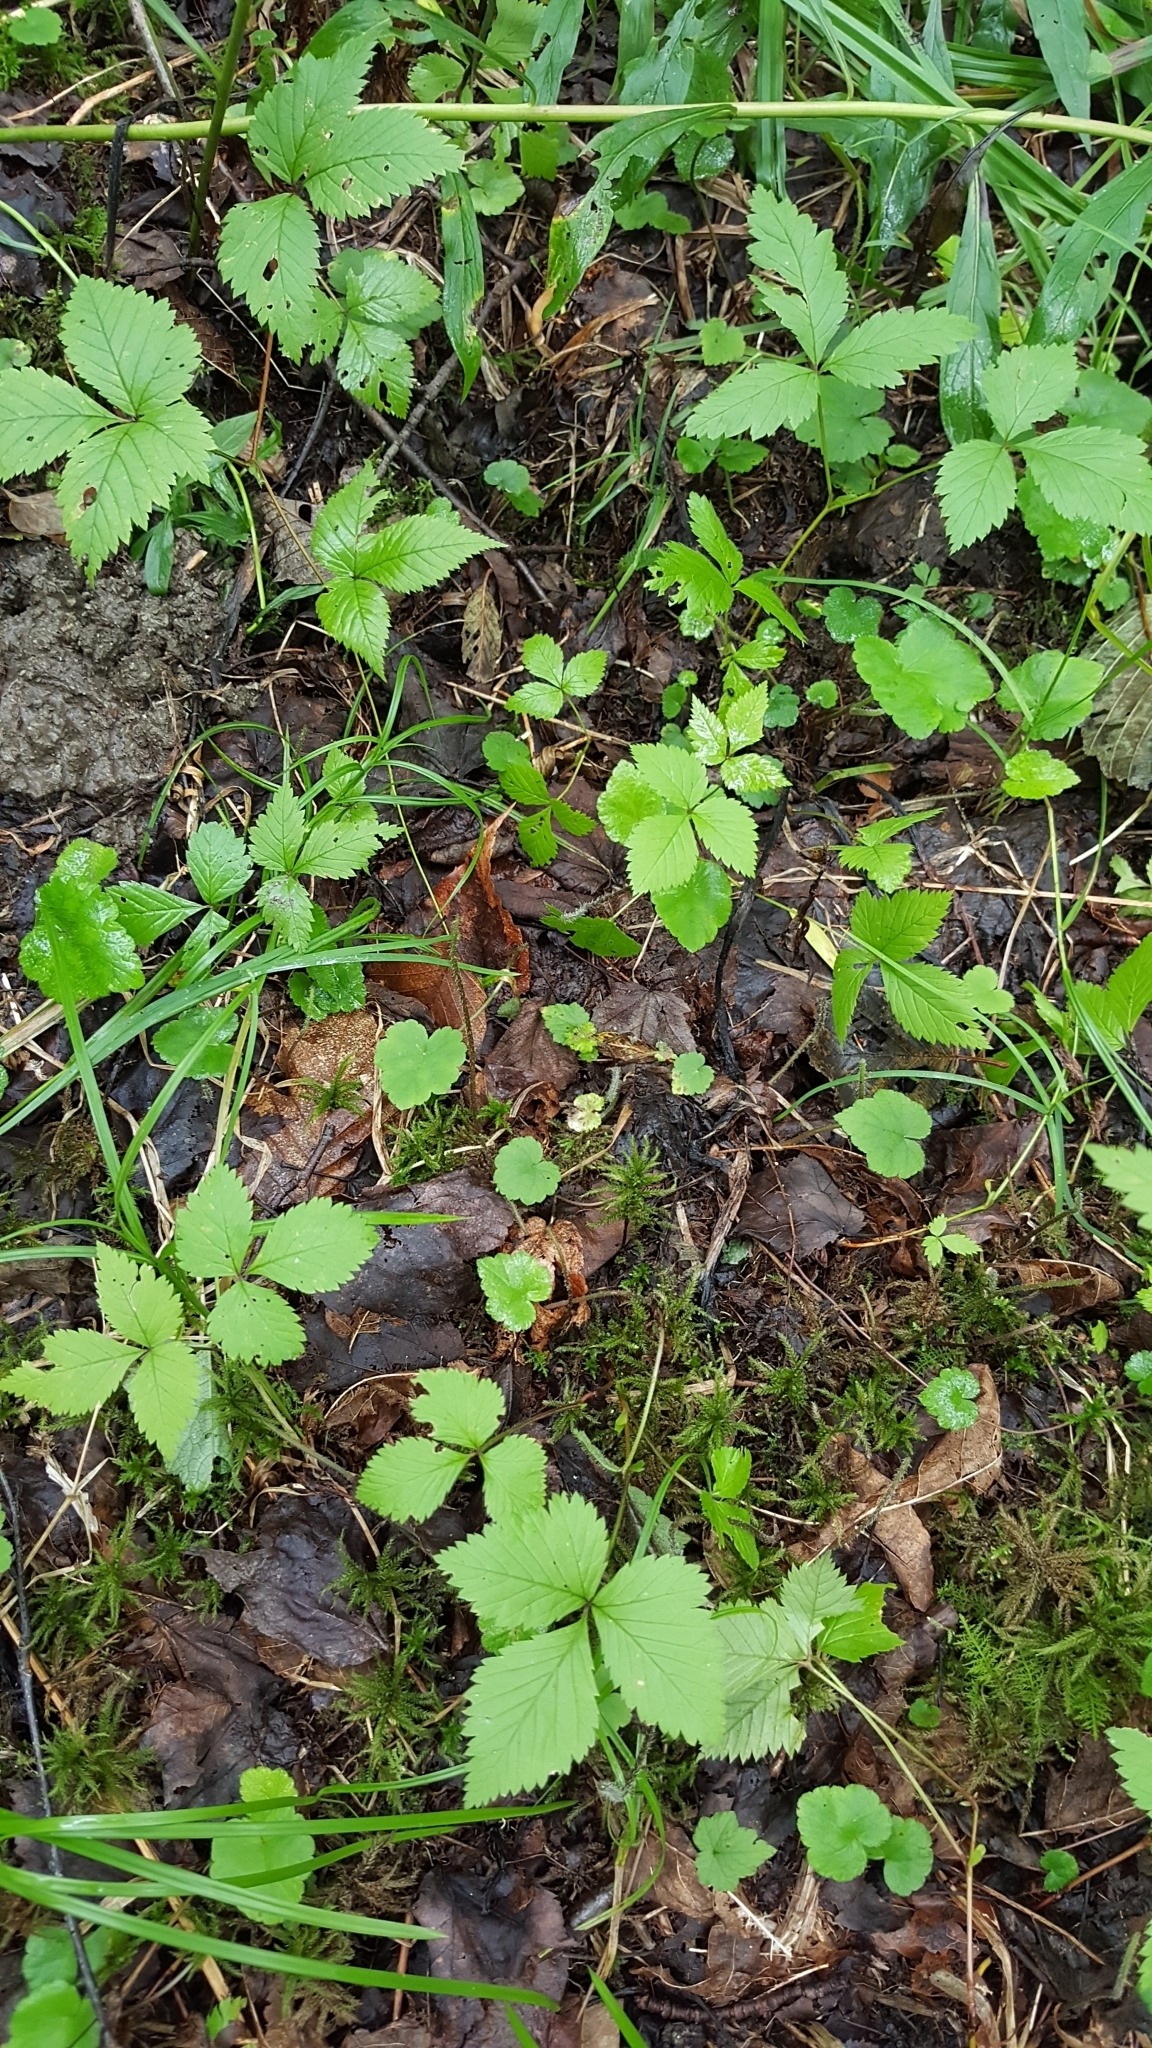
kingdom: Plantae
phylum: Tracheophyta
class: Magnoliopsida
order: Rosales
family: Rosaceae
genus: Rubus
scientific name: Rubus pubescens
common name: Dwarf raspberry
